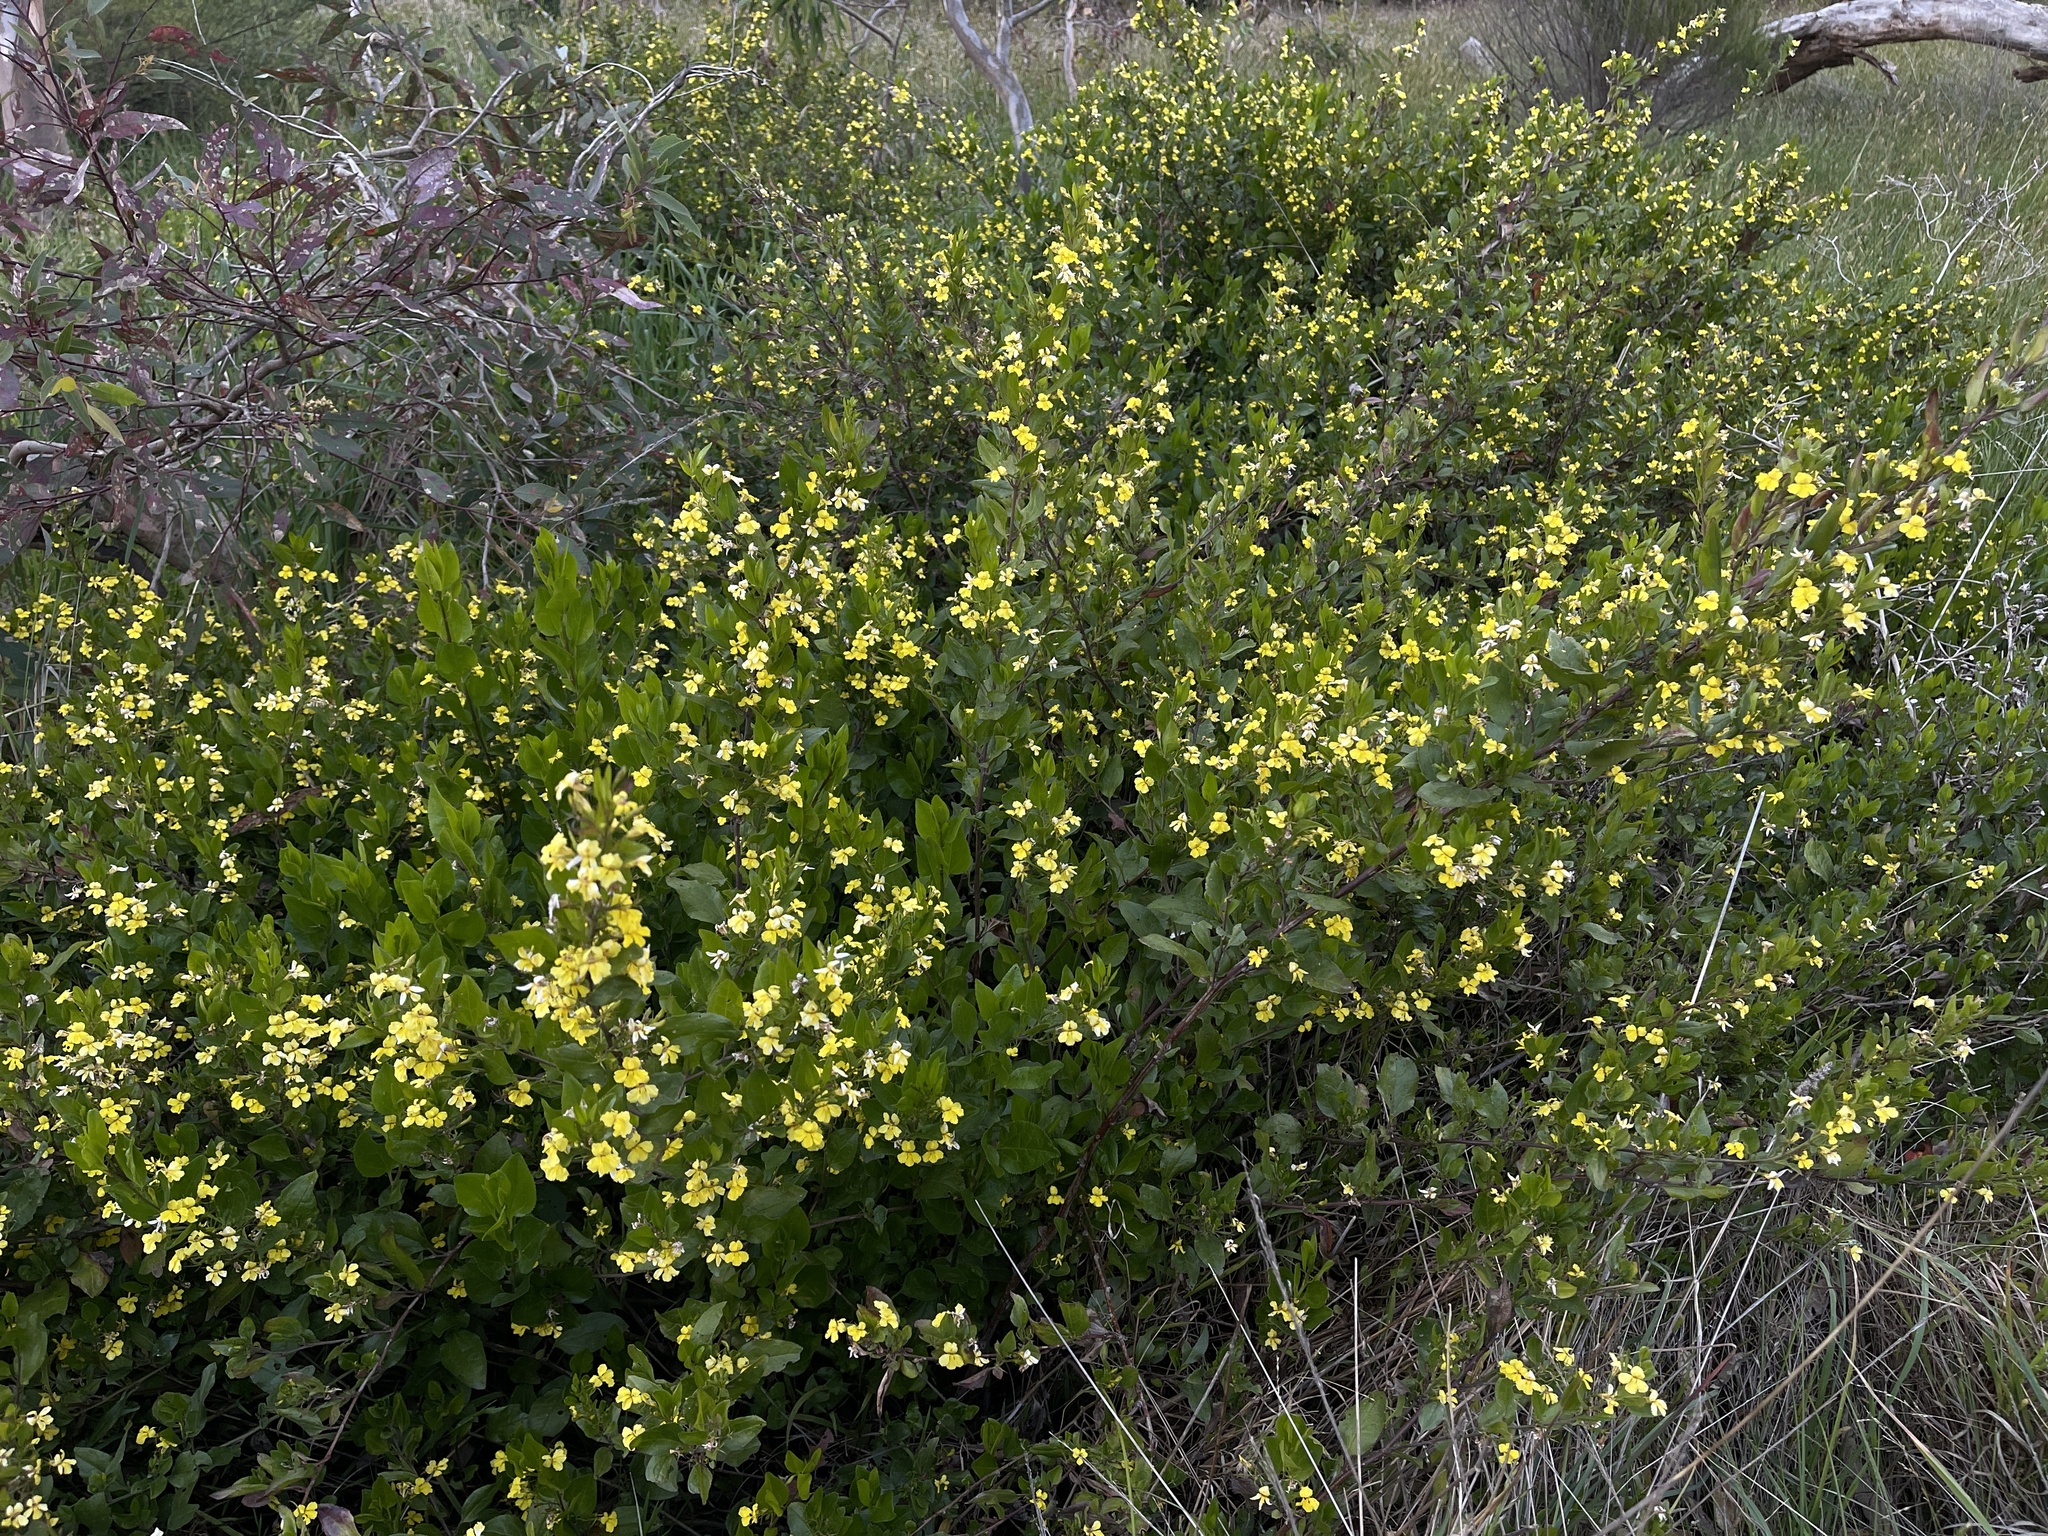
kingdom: Plantae
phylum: Tracheophyta
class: Magnoliopsida
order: Asterales
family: Goodeniaceae
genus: Goodenia
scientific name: Goodenia ovata
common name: Hop goodenia
